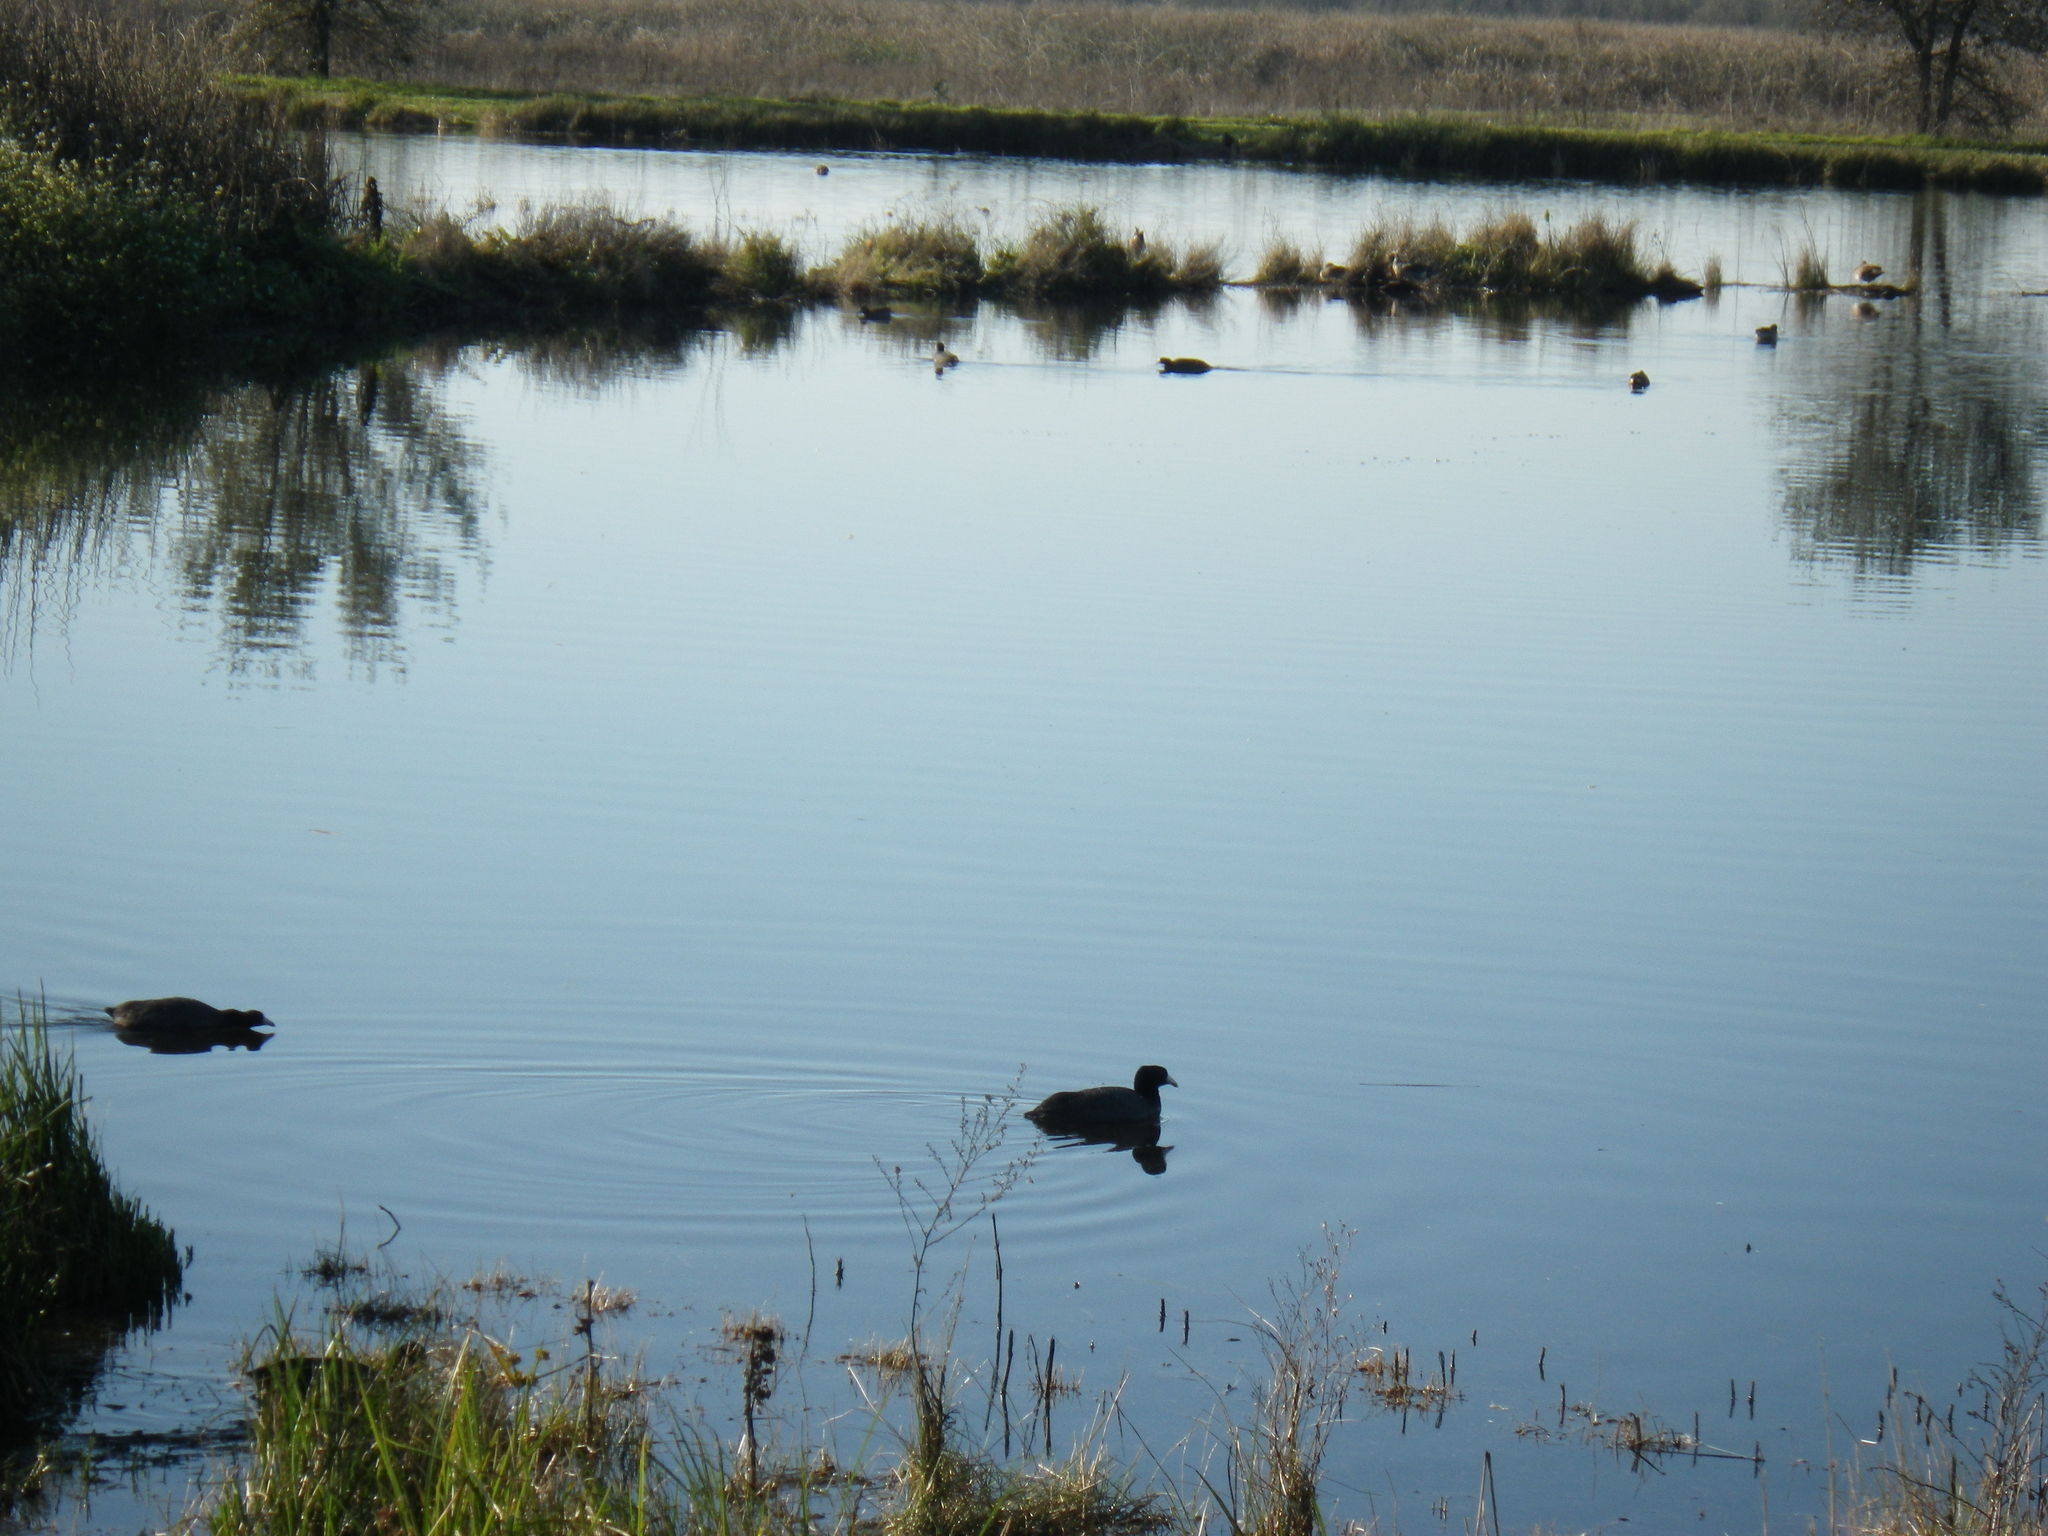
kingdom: Animalia
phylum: Chordata
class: Aves
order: Gruiformes
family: Rallidae
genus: Fulica
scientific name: Fulica americana
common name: American coot
